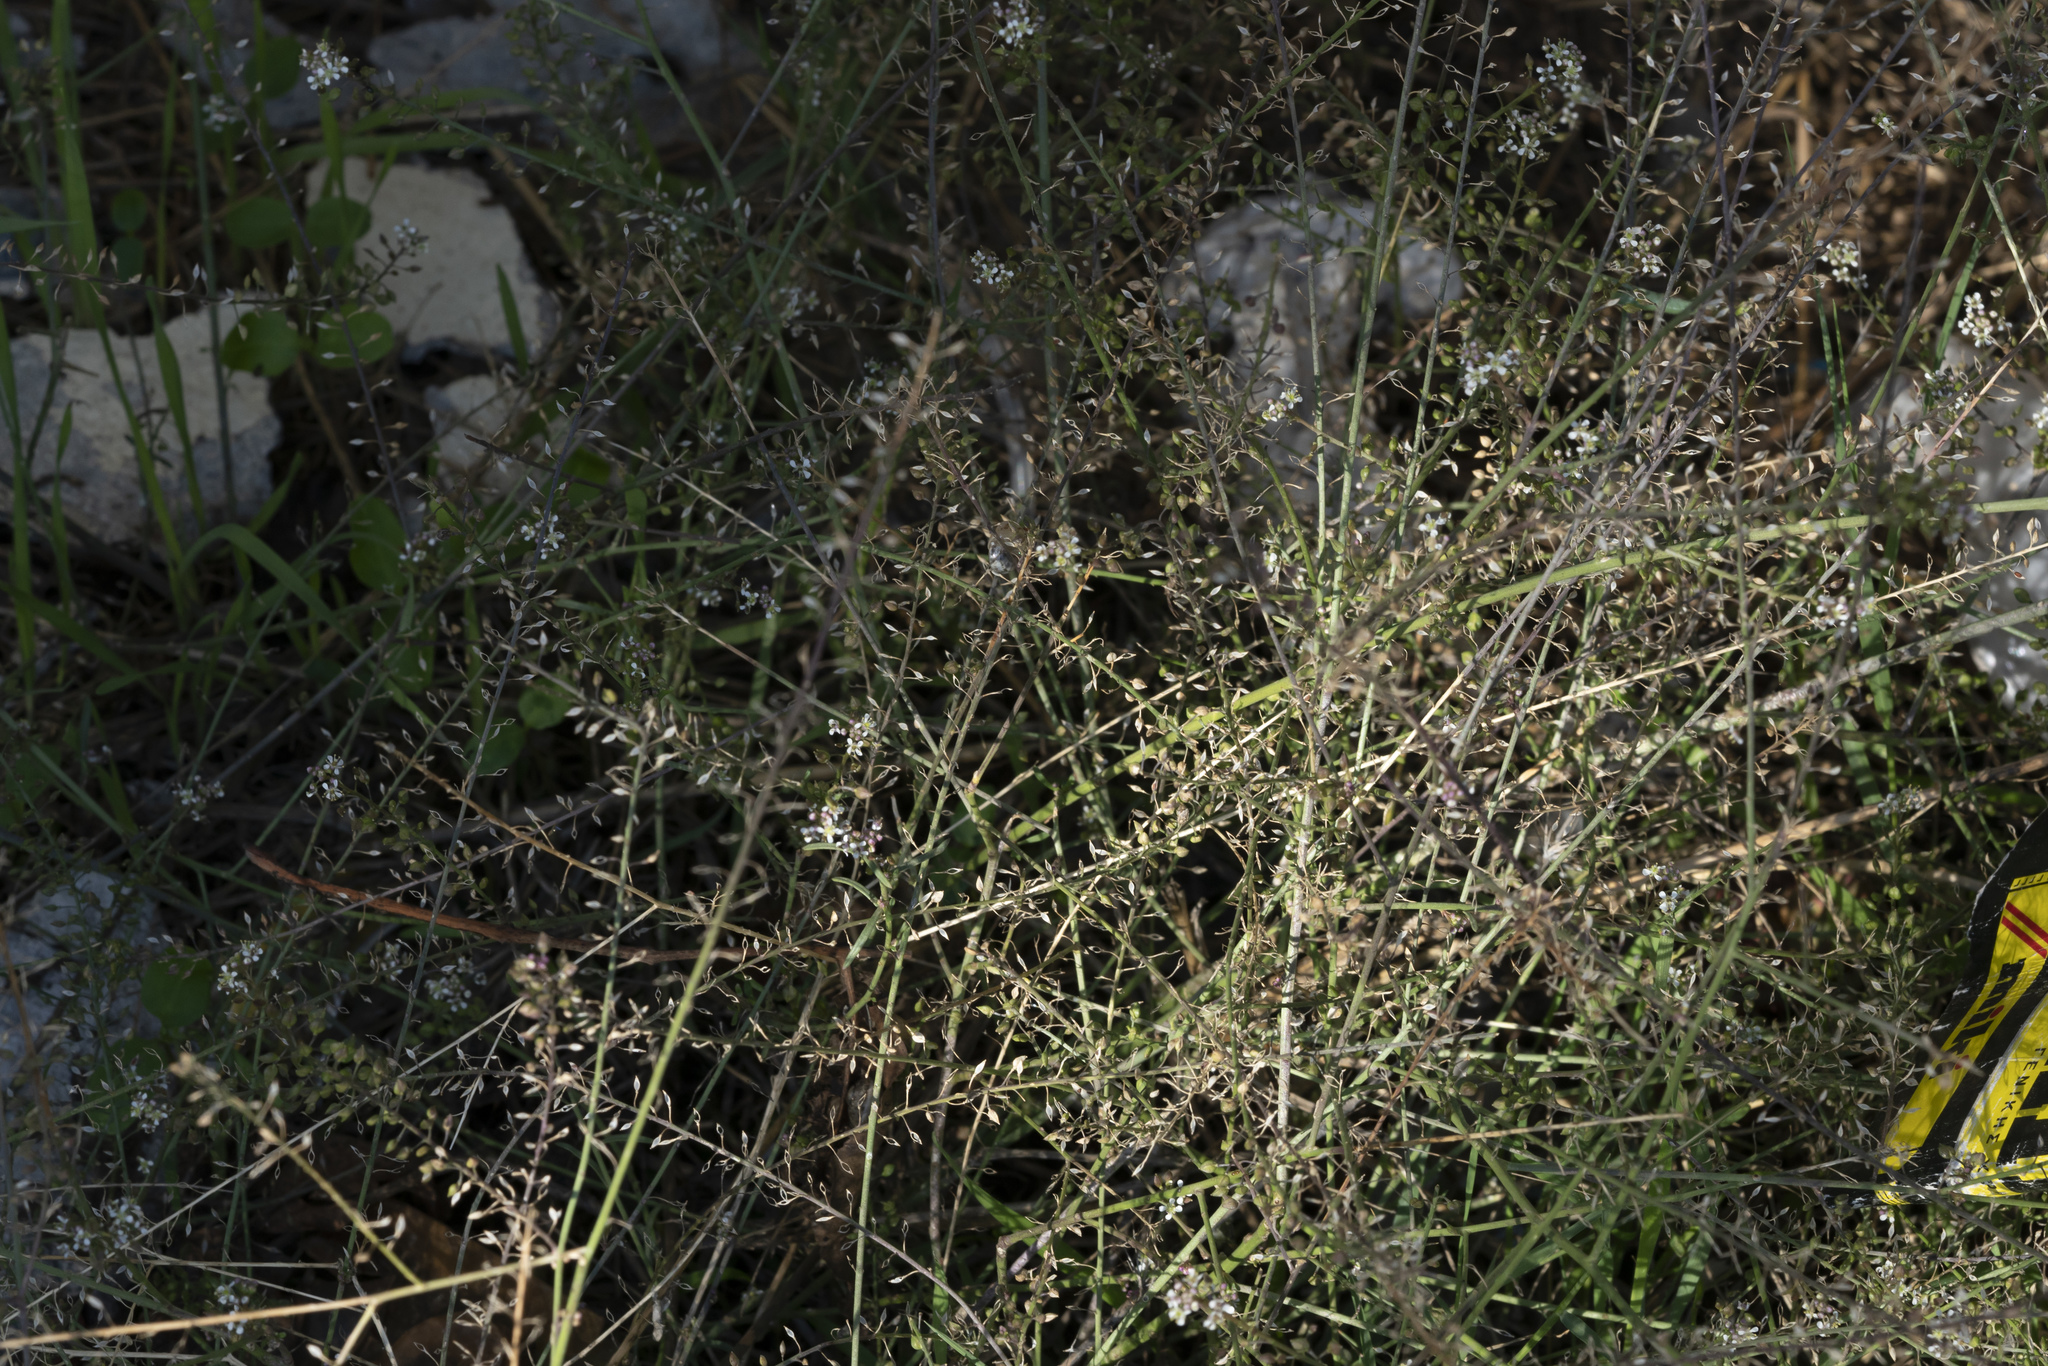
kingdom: Plantae
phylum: Tracheophyta
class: Magnoliopsida
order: Brassicales
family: Brassicaceae
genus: Lepidium
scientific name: Lepidium graminifolium
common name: Tall pepperwort
